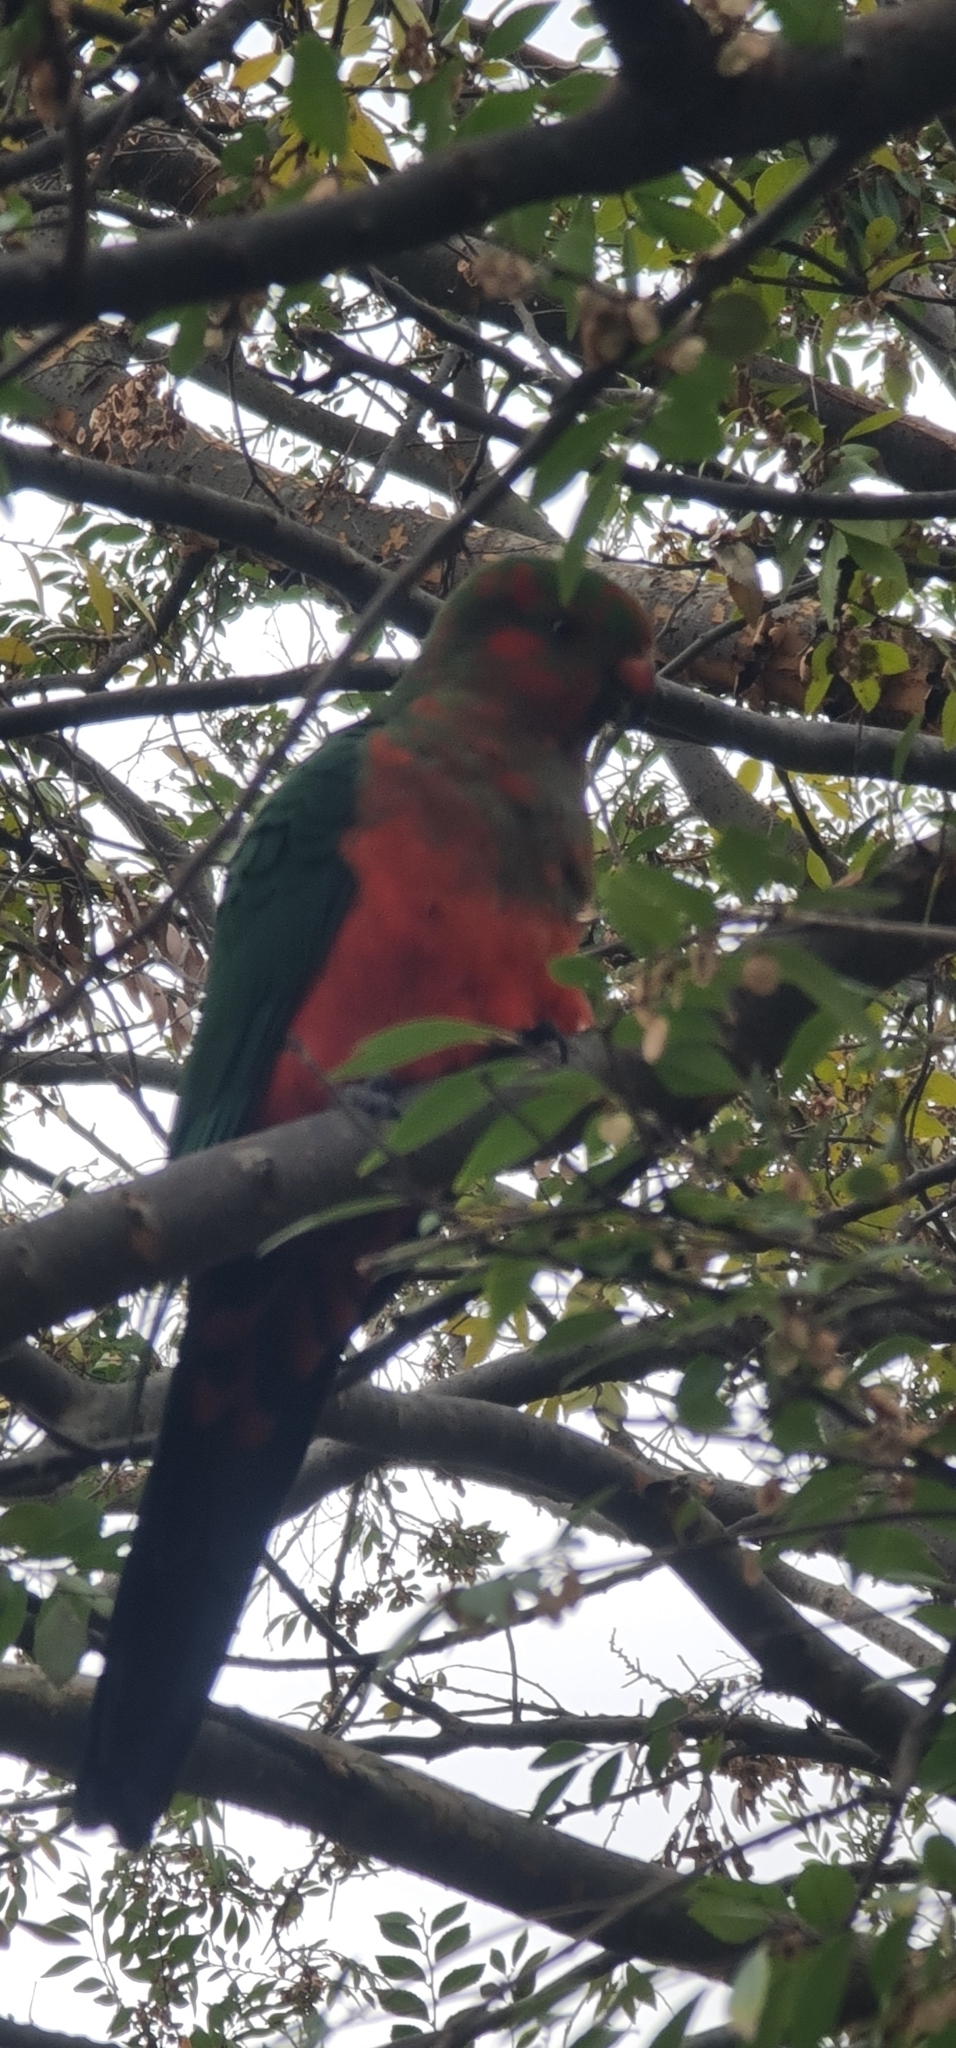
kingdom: Animalia
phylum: Chordata
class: Aves
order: Psittaciformes
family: Psittacidae
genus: Alisterus
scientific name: Alisterus scapularis
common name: Australian king parrot
